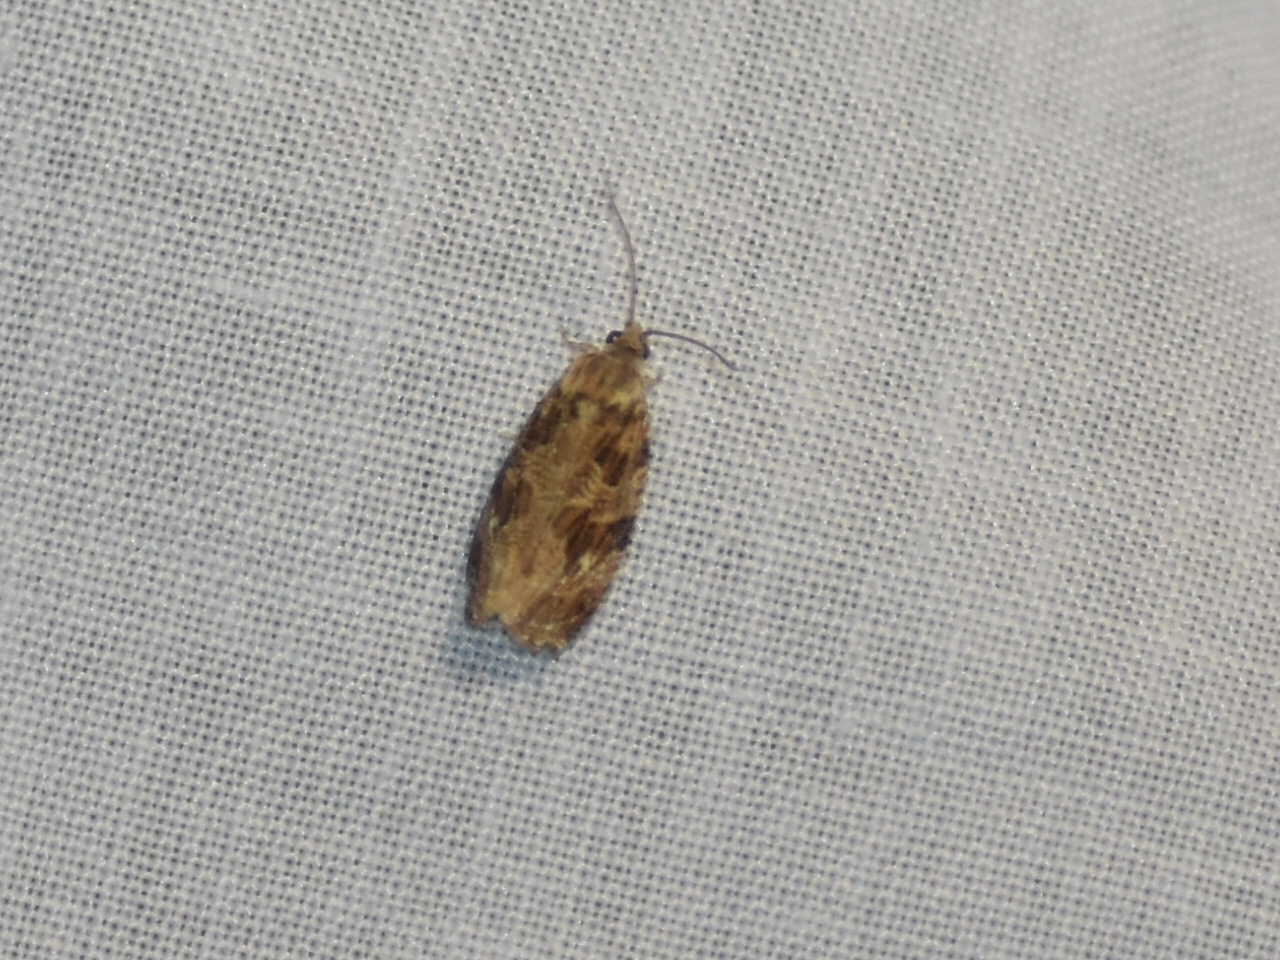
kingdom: Animalia
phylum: Arthropoda
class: Insecta
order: Lepidoptera
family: Tortricidae
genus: Phaecasiophora
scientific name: Phaecasiophora confixana
